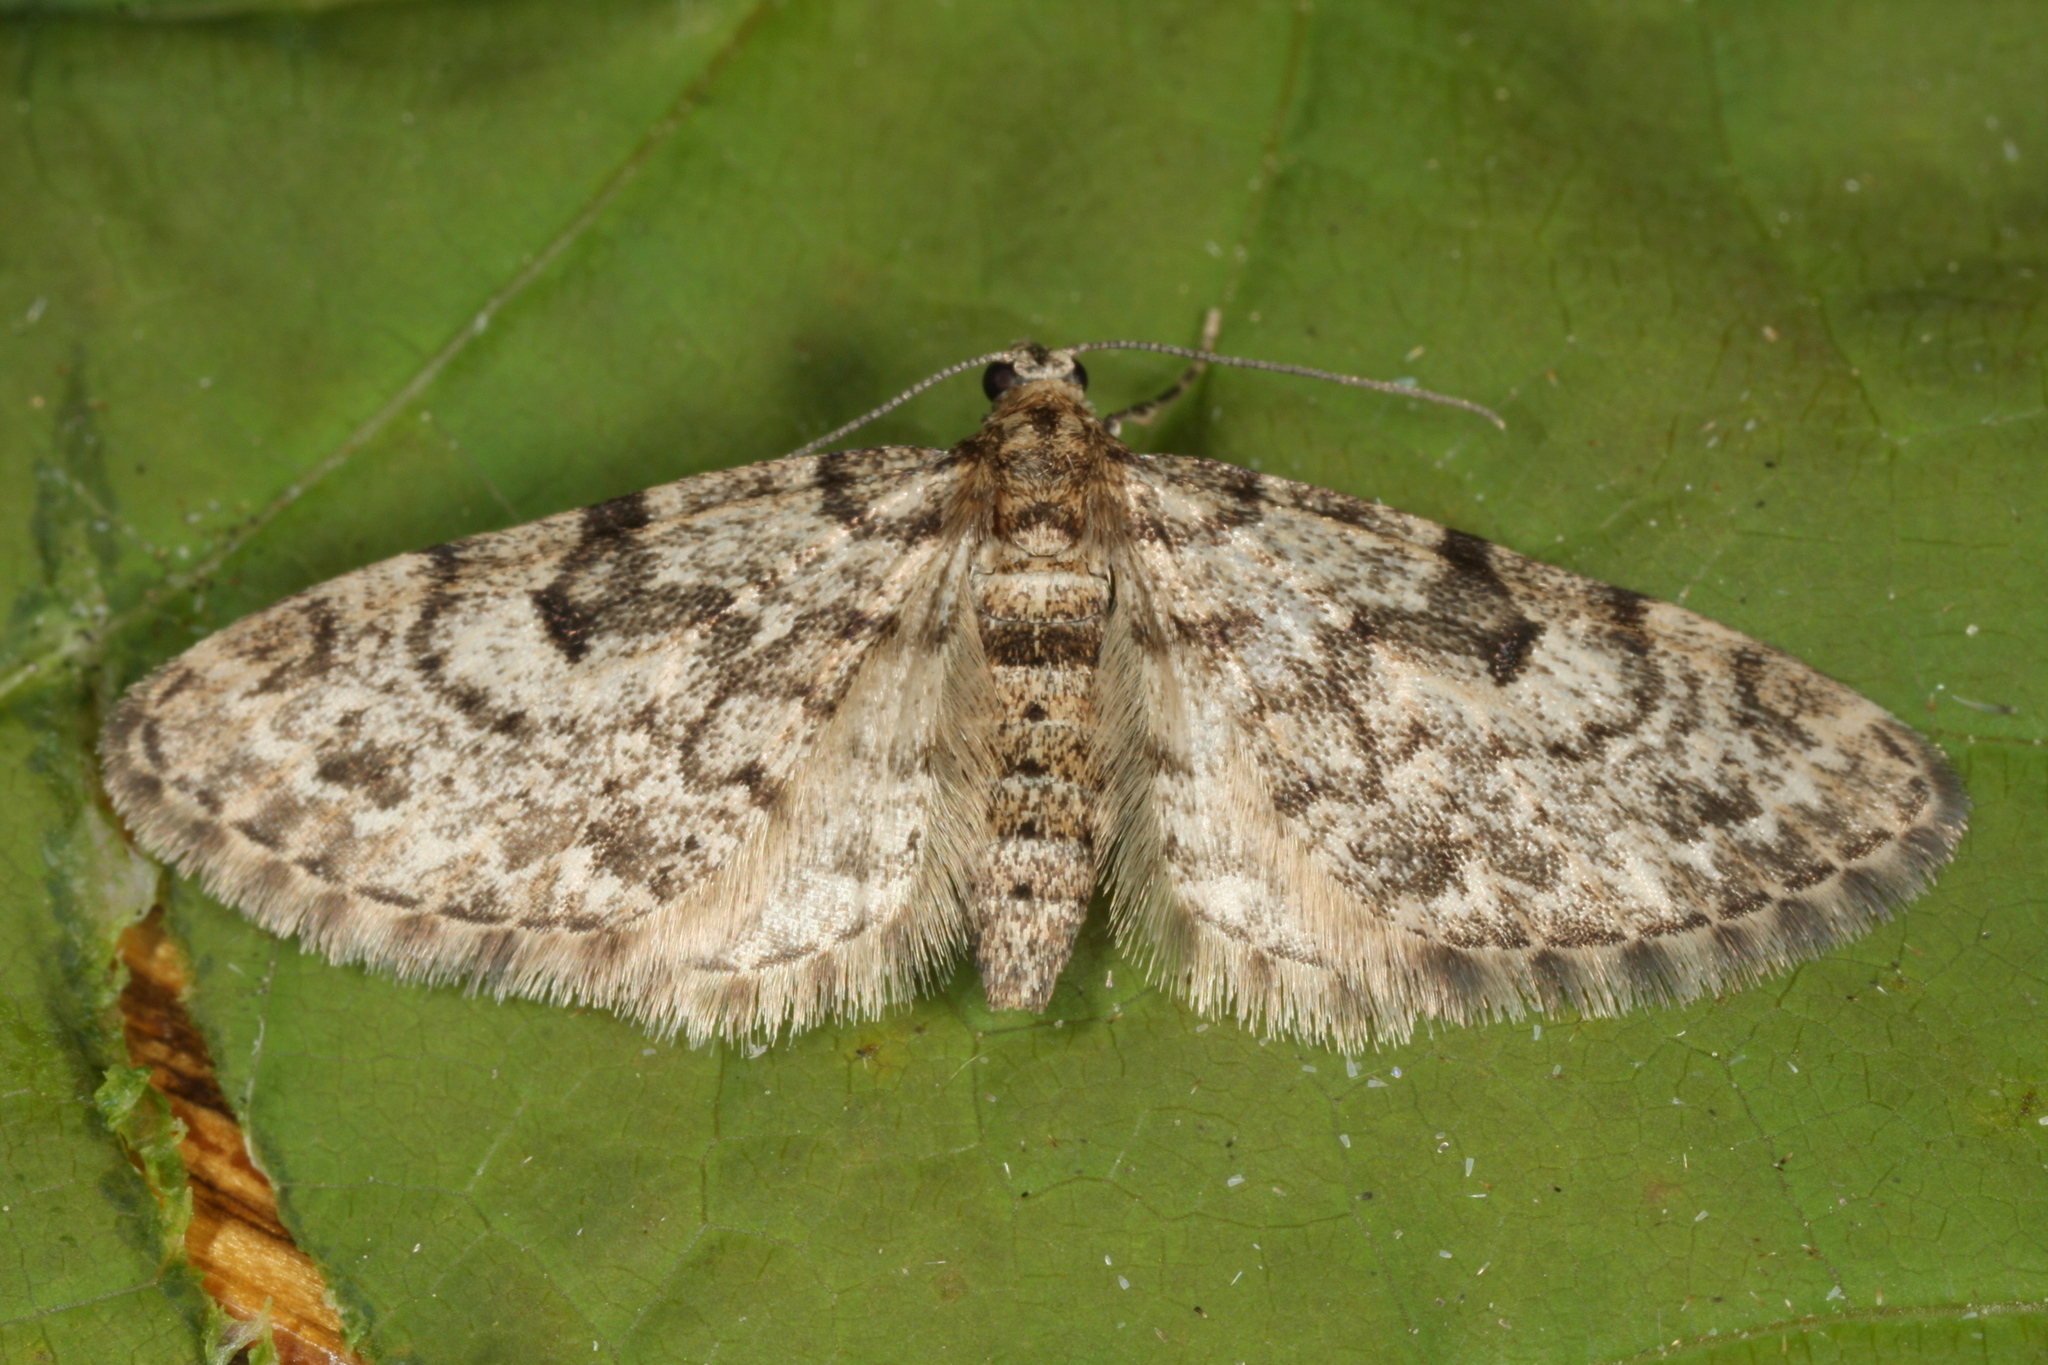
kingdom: Animalia
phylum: Arthropoda
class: Insecta
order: Lepidoptera
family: Geometridae
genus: Eupithecia
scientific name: Eupithecia tantillaria
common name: Dwarf pug
